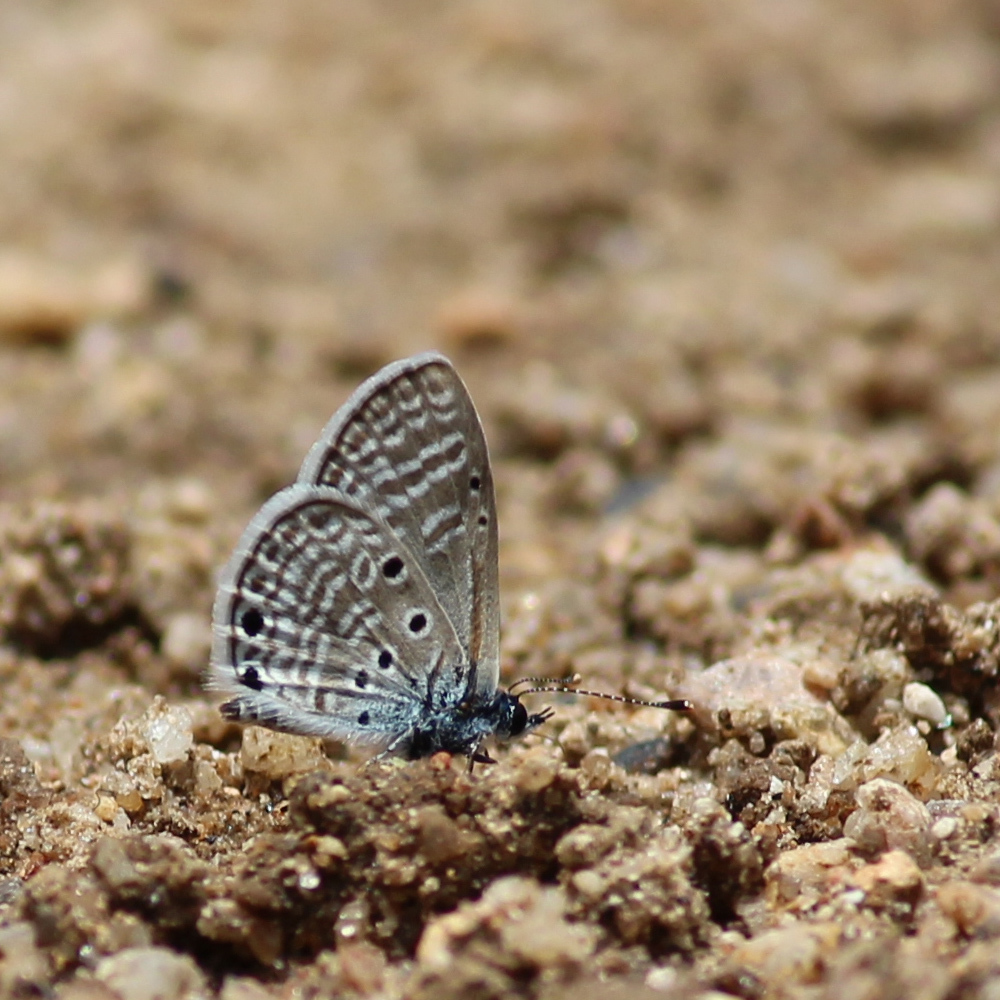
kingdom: Animalia
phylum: Arthropoda
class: Insecta
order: Lepidoptera
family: Lycaenidae
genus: Azanus
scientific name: Azanus ubaldus
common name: Desert babul blue
